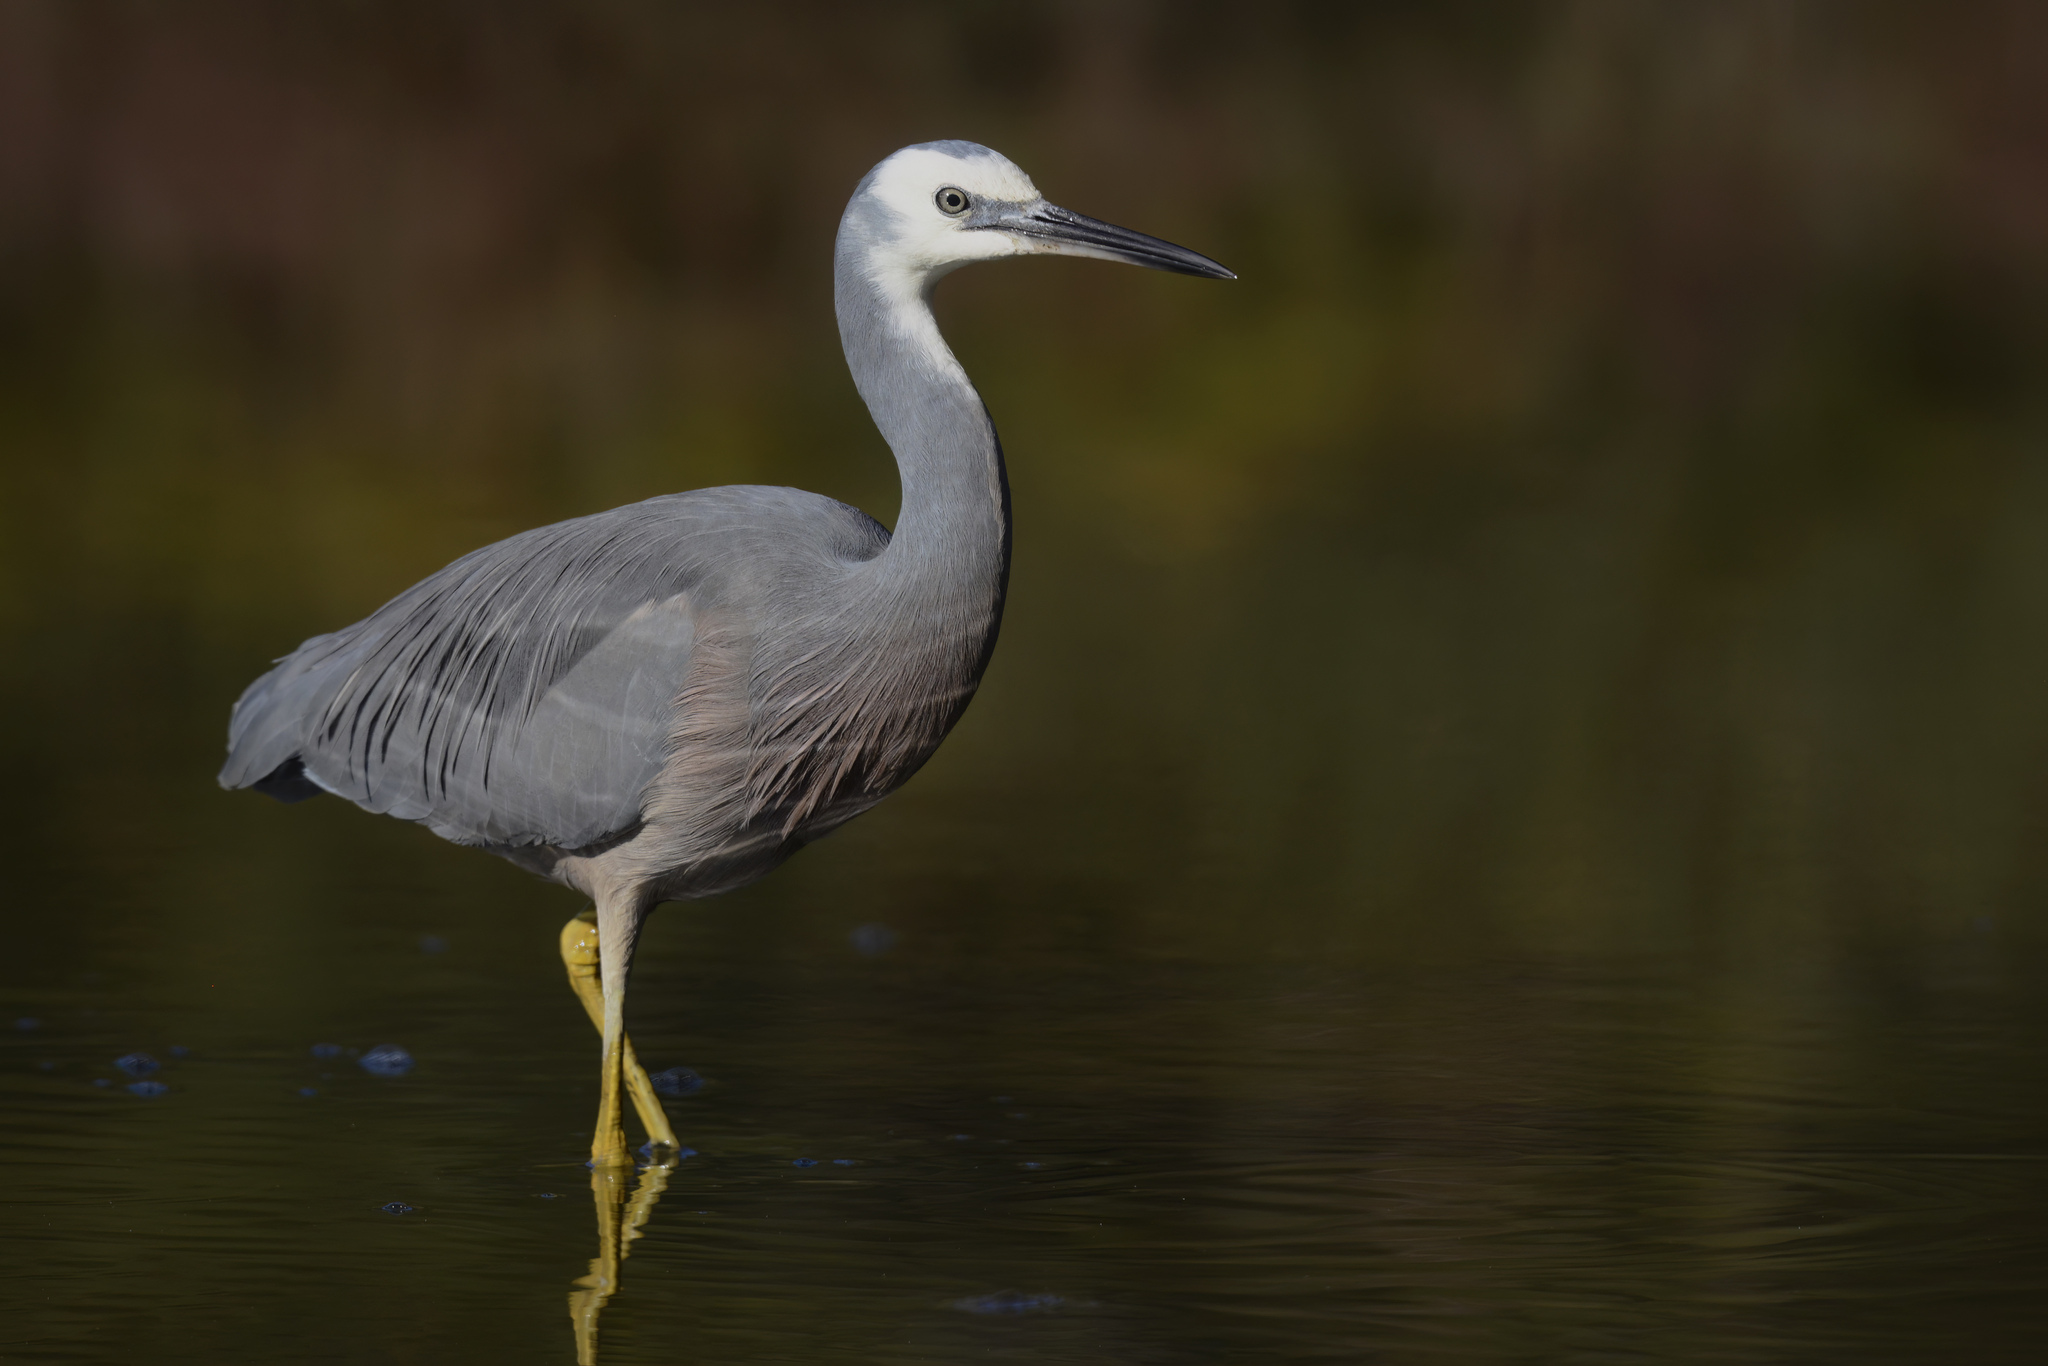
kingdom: Animalia
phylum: Chordata
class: Aves
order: Pelecaniformes
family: Ardeidae
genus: Egretta
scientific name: Egretta novaehollandiae
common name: White-faced heron
